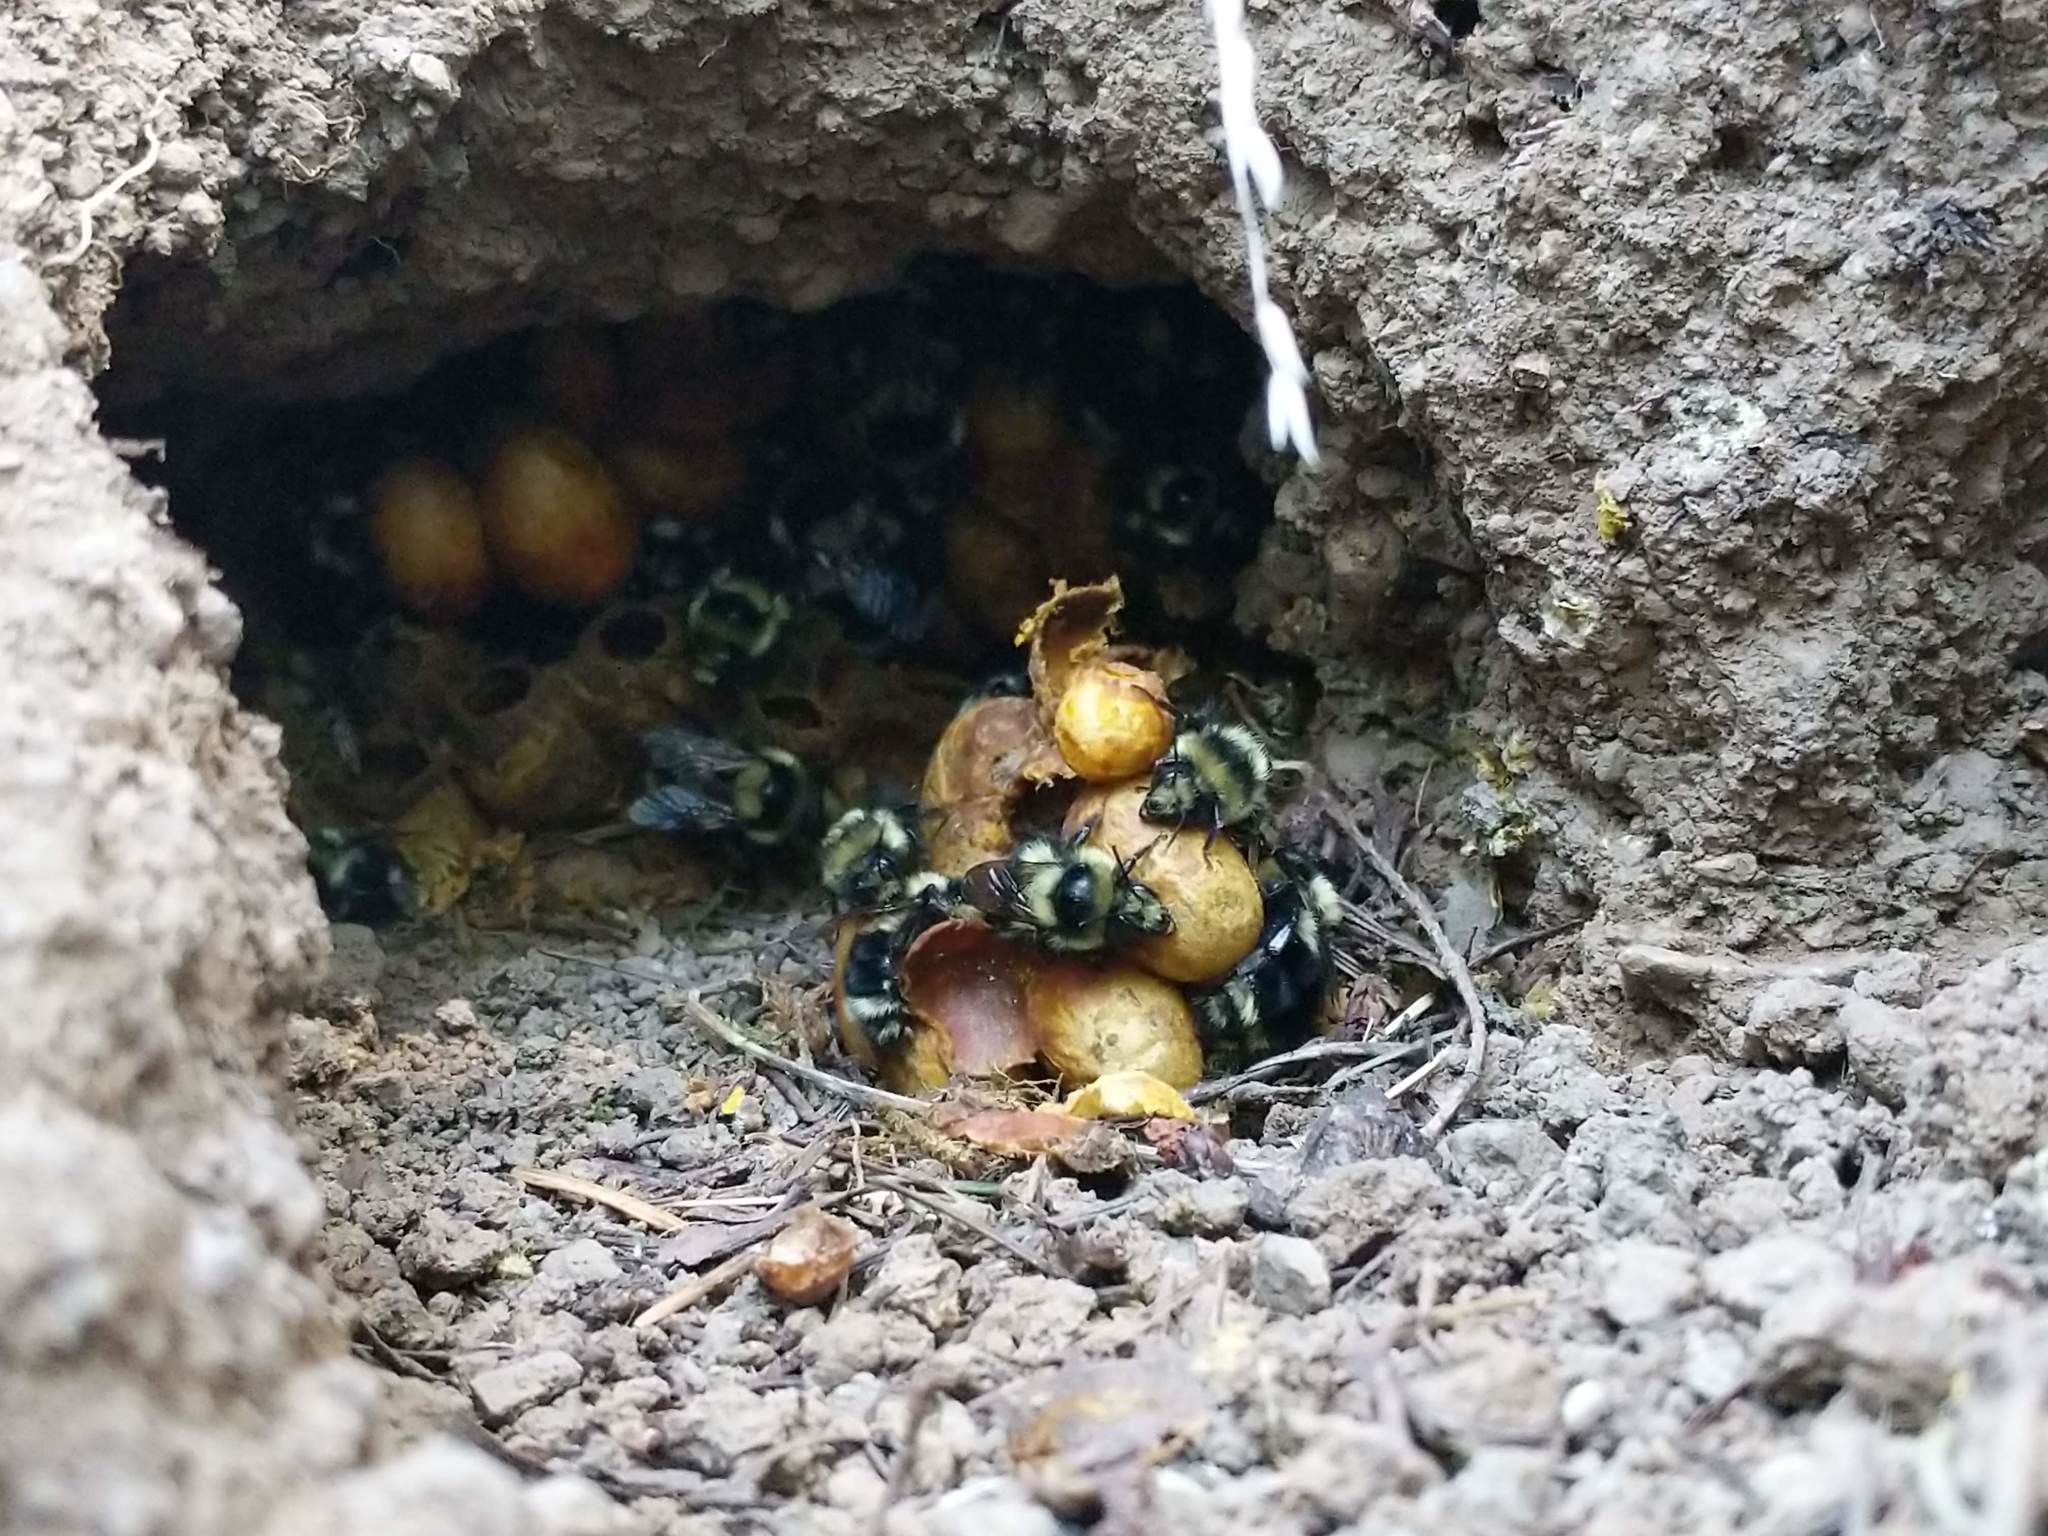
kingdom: Animalia
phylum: Arthropoda
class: Insecta
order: Hymenoptera
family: Apidae
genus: Bombus
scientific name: Bombus melanopygus
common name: Black tail bumble bee
